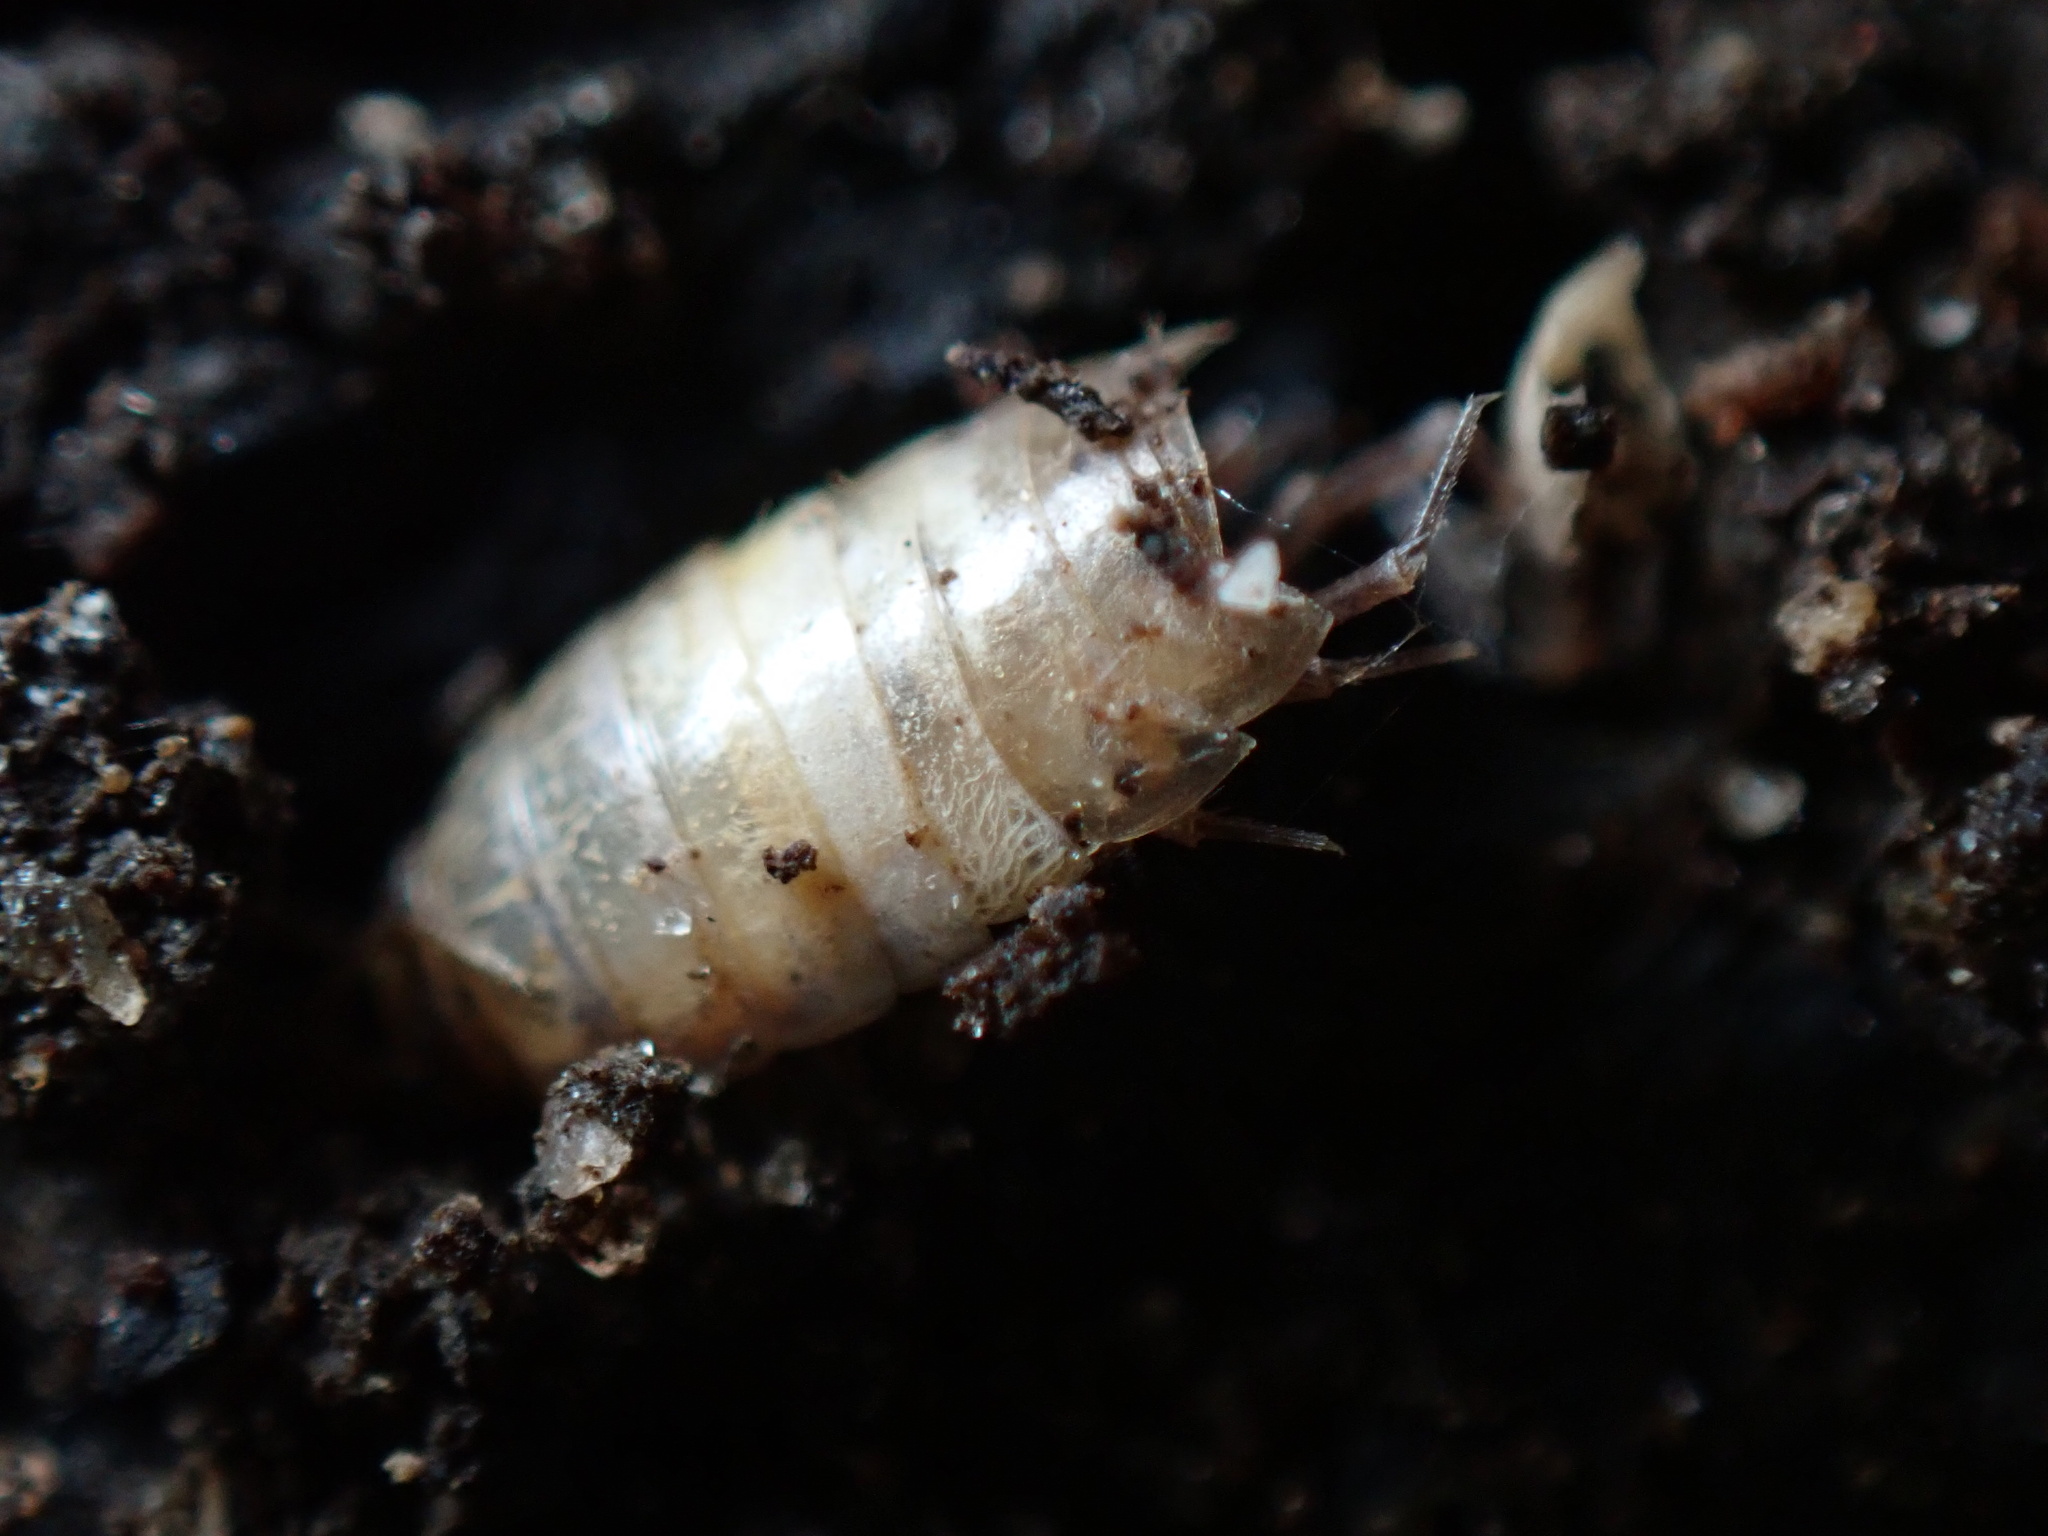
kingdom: Animalia
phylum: Arthropoda
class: Malacostraca
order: Isopoda
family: Philosciidae
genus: Philoscia
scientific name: Philoscia muscorum
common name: Common striped woodlouse
